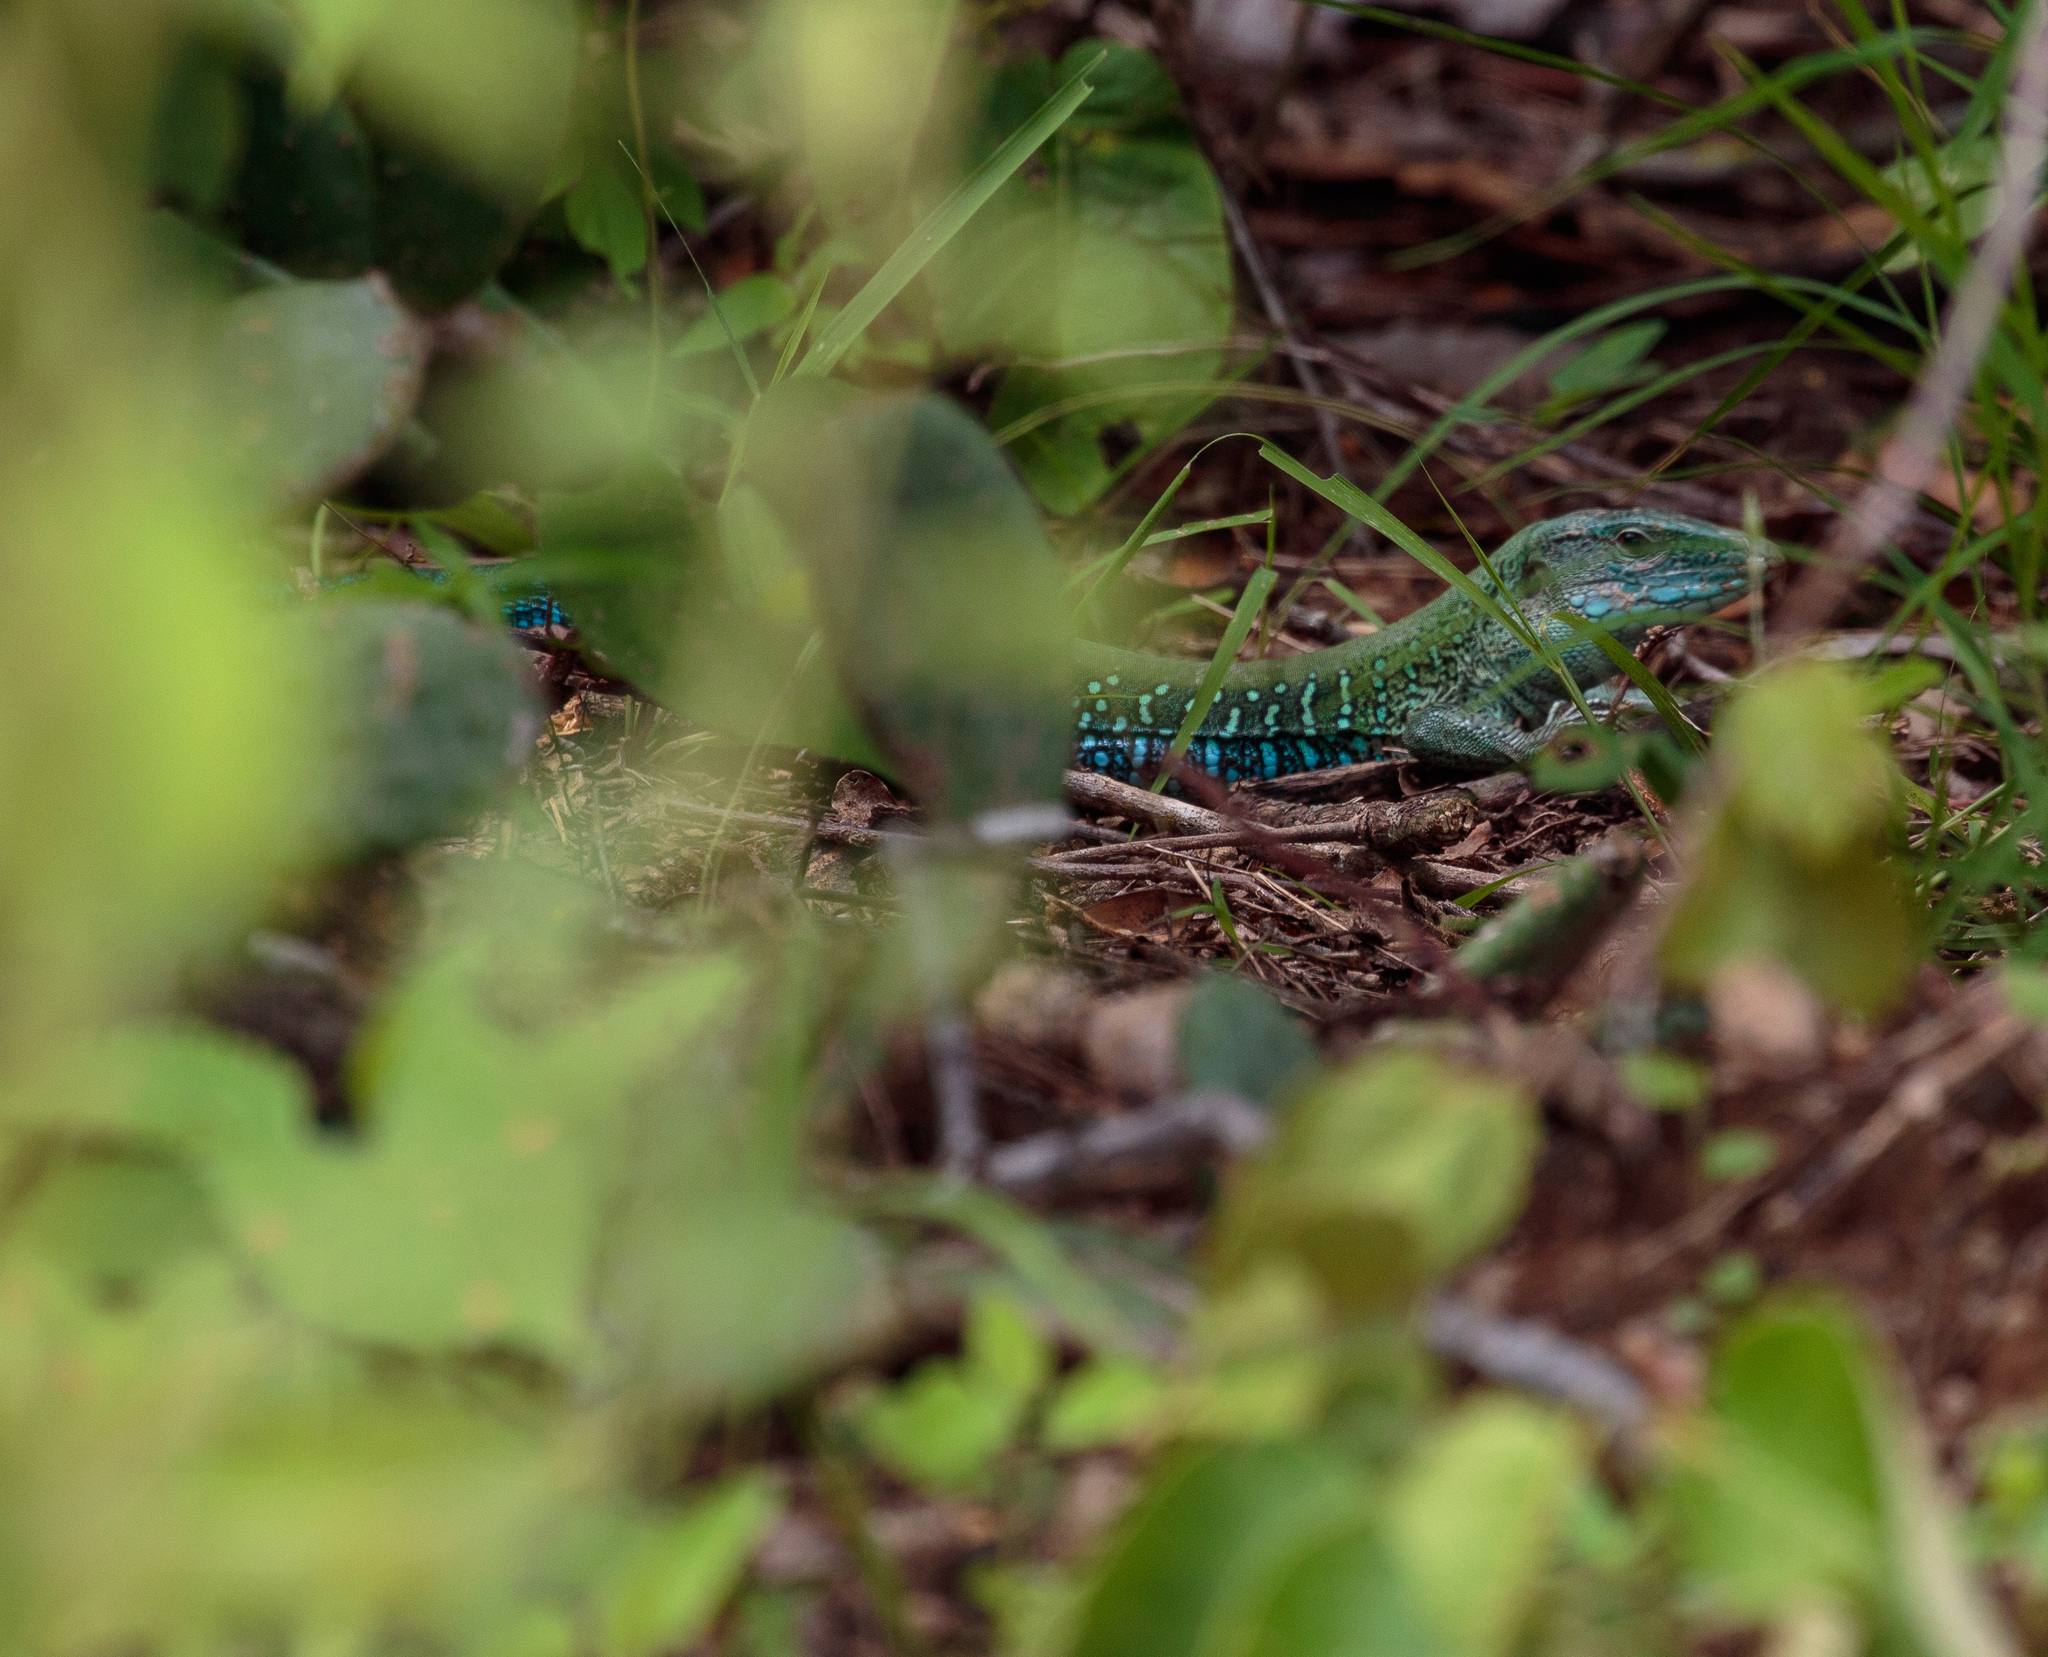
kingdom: Animalia
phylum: Chordata
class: Squamata
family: Teiidae
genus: Ameiva
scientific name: Ameiva ameiva
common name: Giant ameiva
